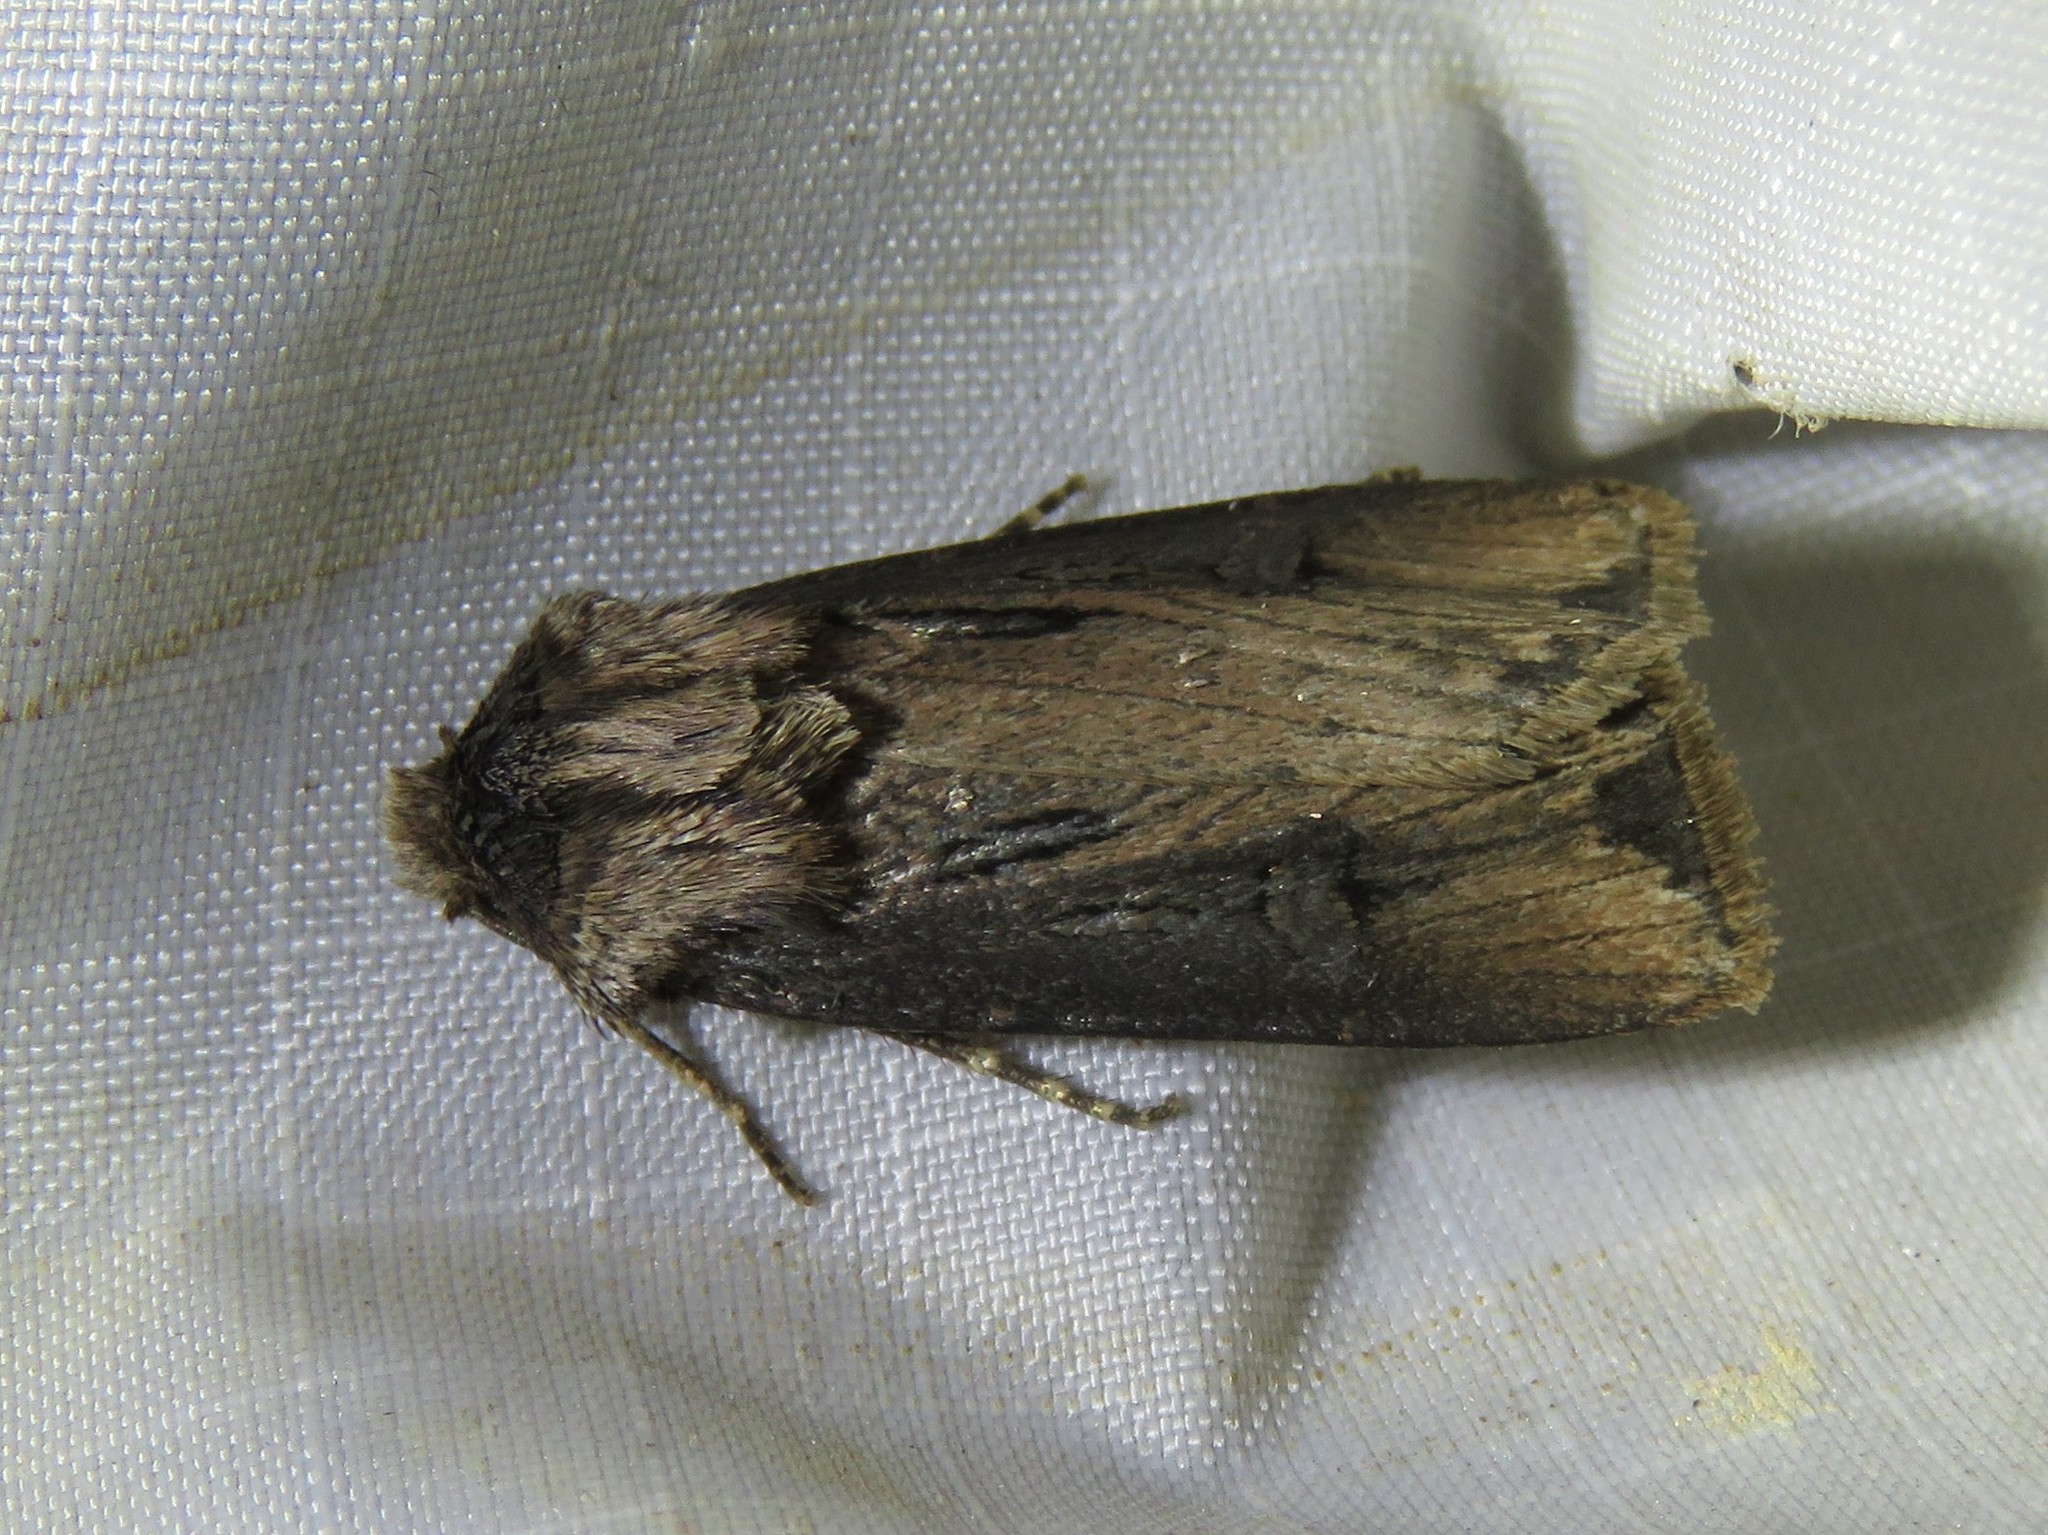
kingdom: Animalia
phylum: Arthropoda
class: Insecta
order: Lepidoptera
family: Noctuidae
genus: Agrotis
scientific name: Agrotis venerabilis
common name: Venerable dart
